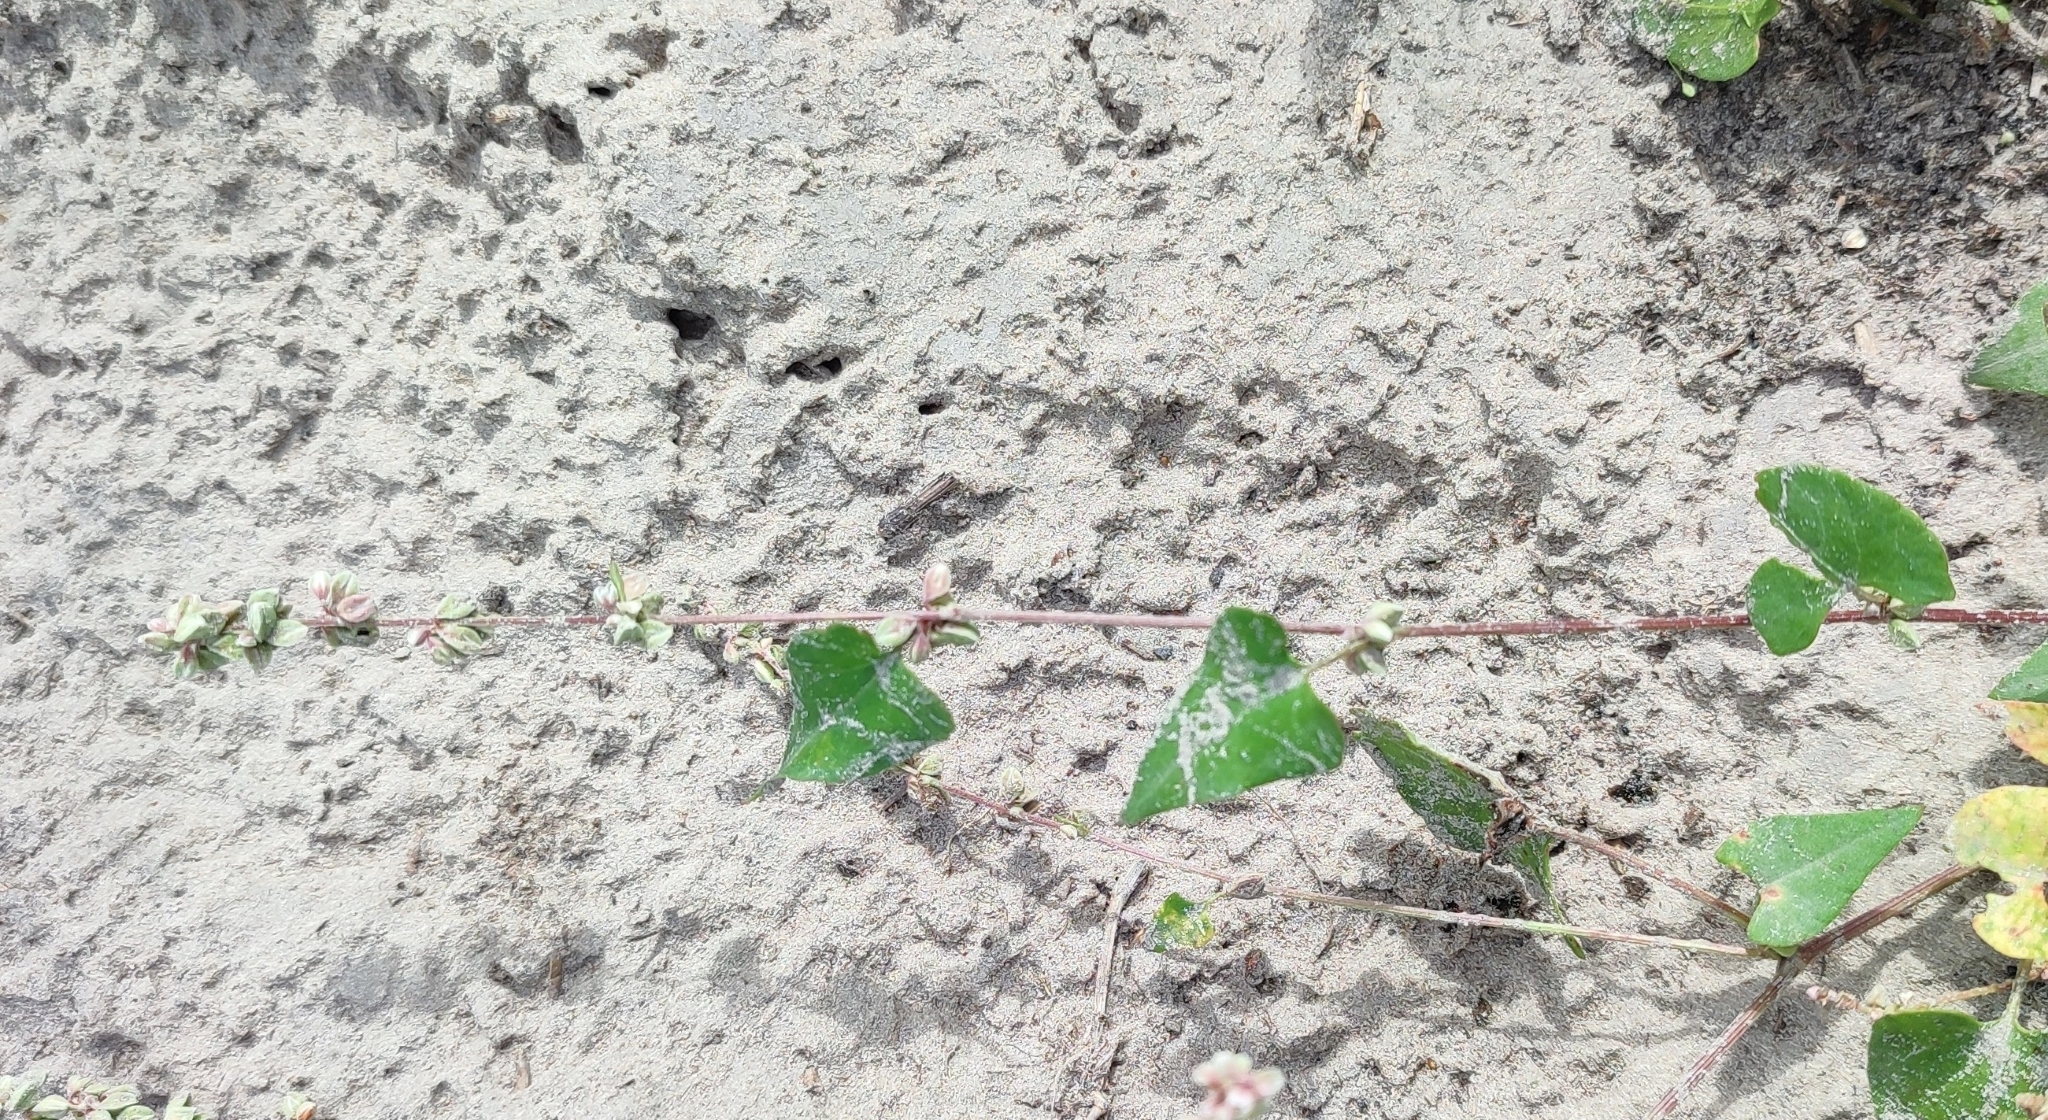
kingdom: Plantae
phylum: Tracheophyta
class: Magnoliopsida
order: Caryophyllales
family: Polygonaceae
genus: Fallopia
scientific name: Fallopia convolvulus
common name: Black bindweed
